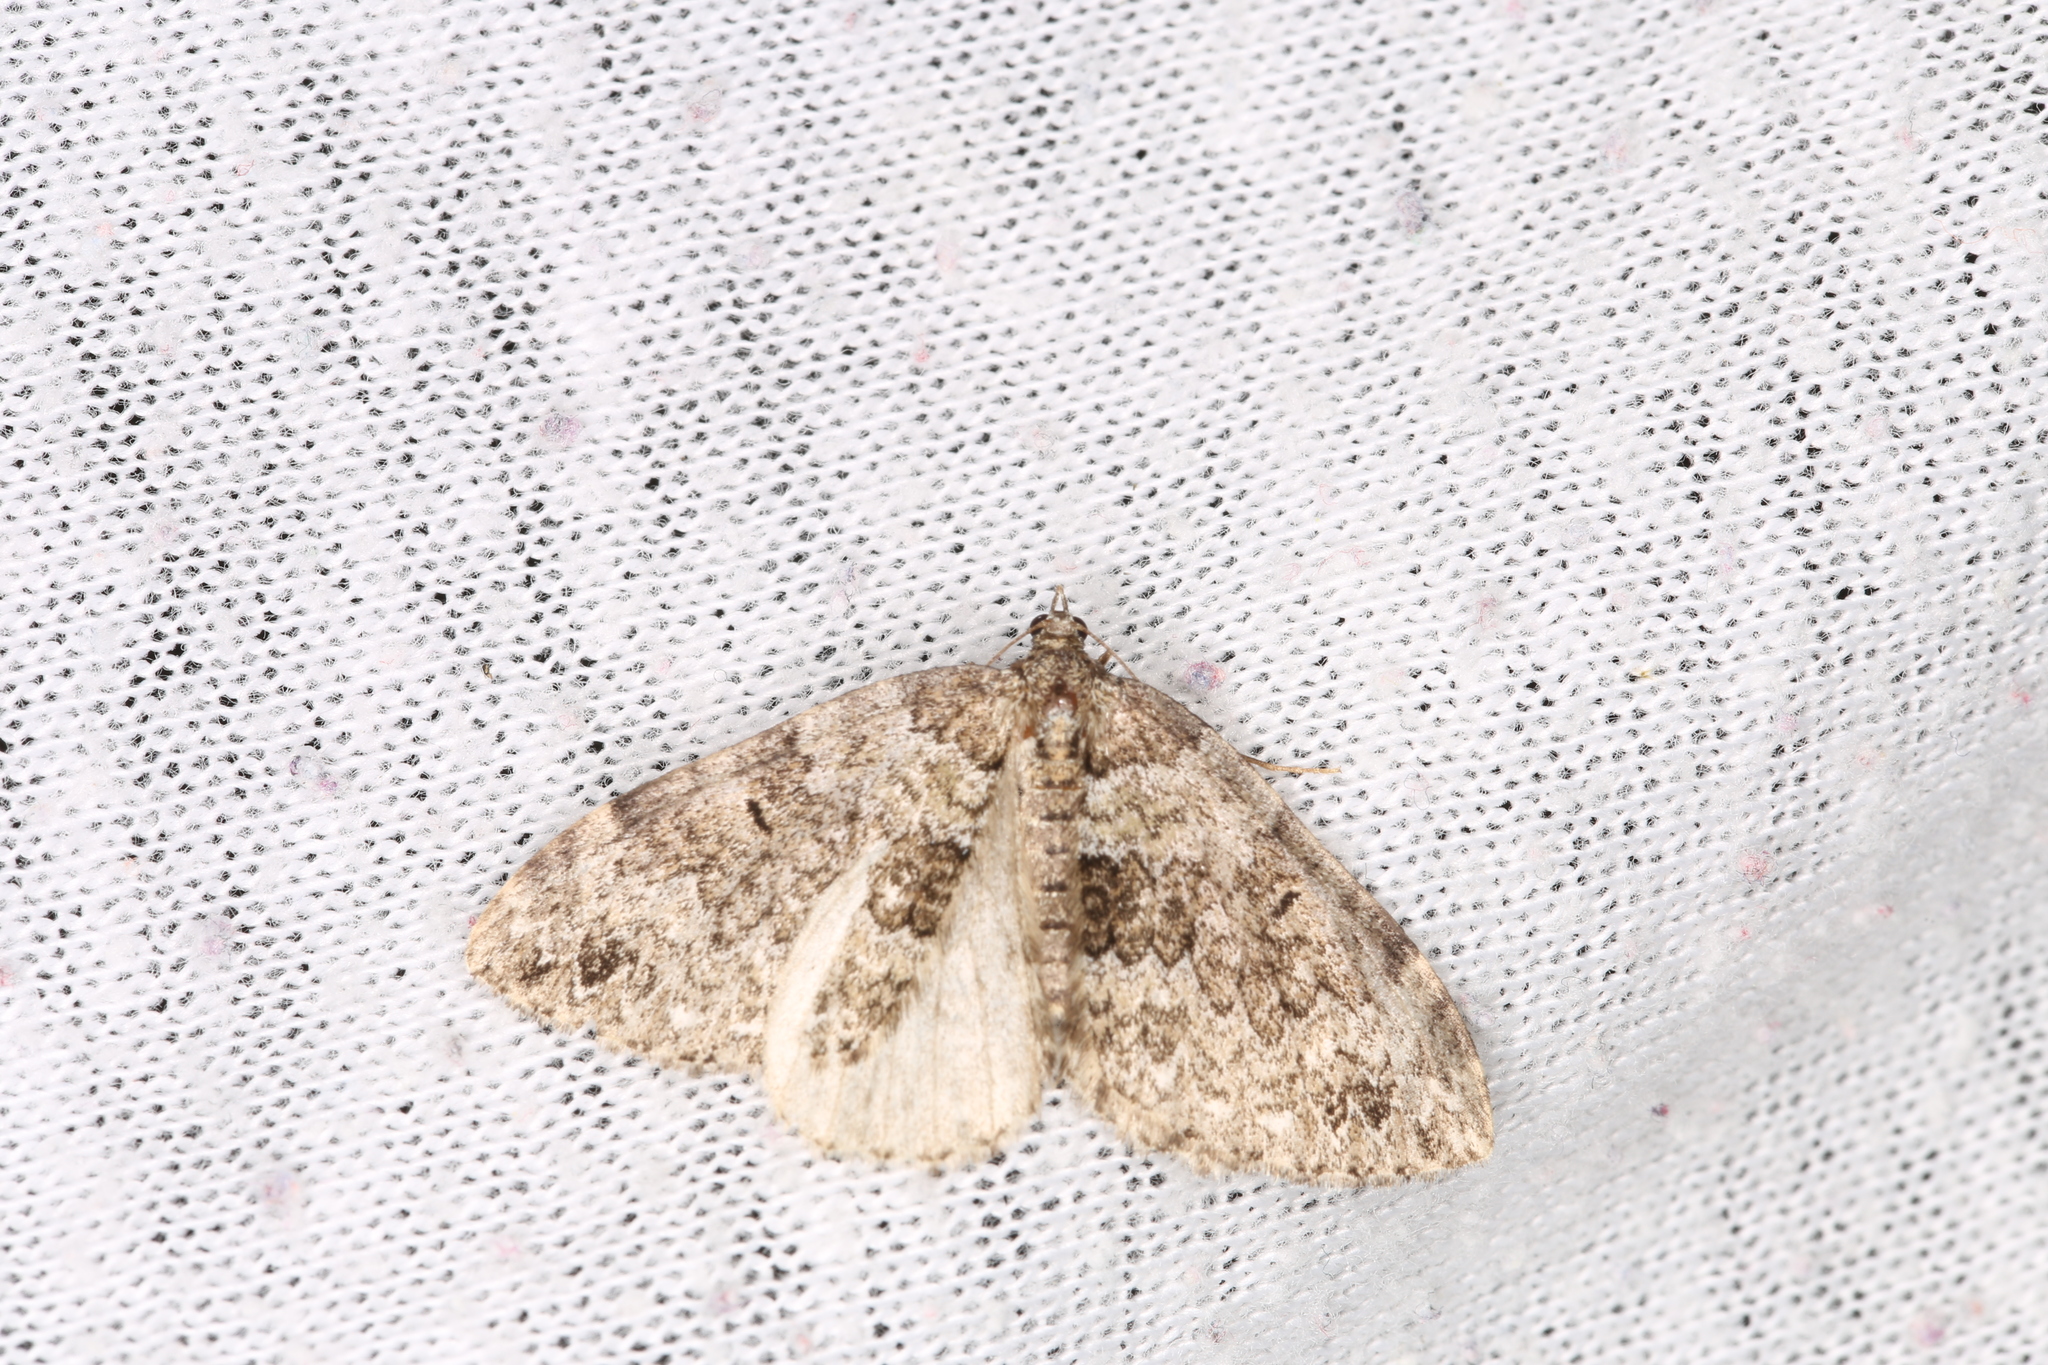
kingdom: Animalia
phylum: Arthropoda
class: Insecta
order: Lepidoptera
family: Geometridae
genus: Colostygia
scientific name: Colostygia kollariaria
